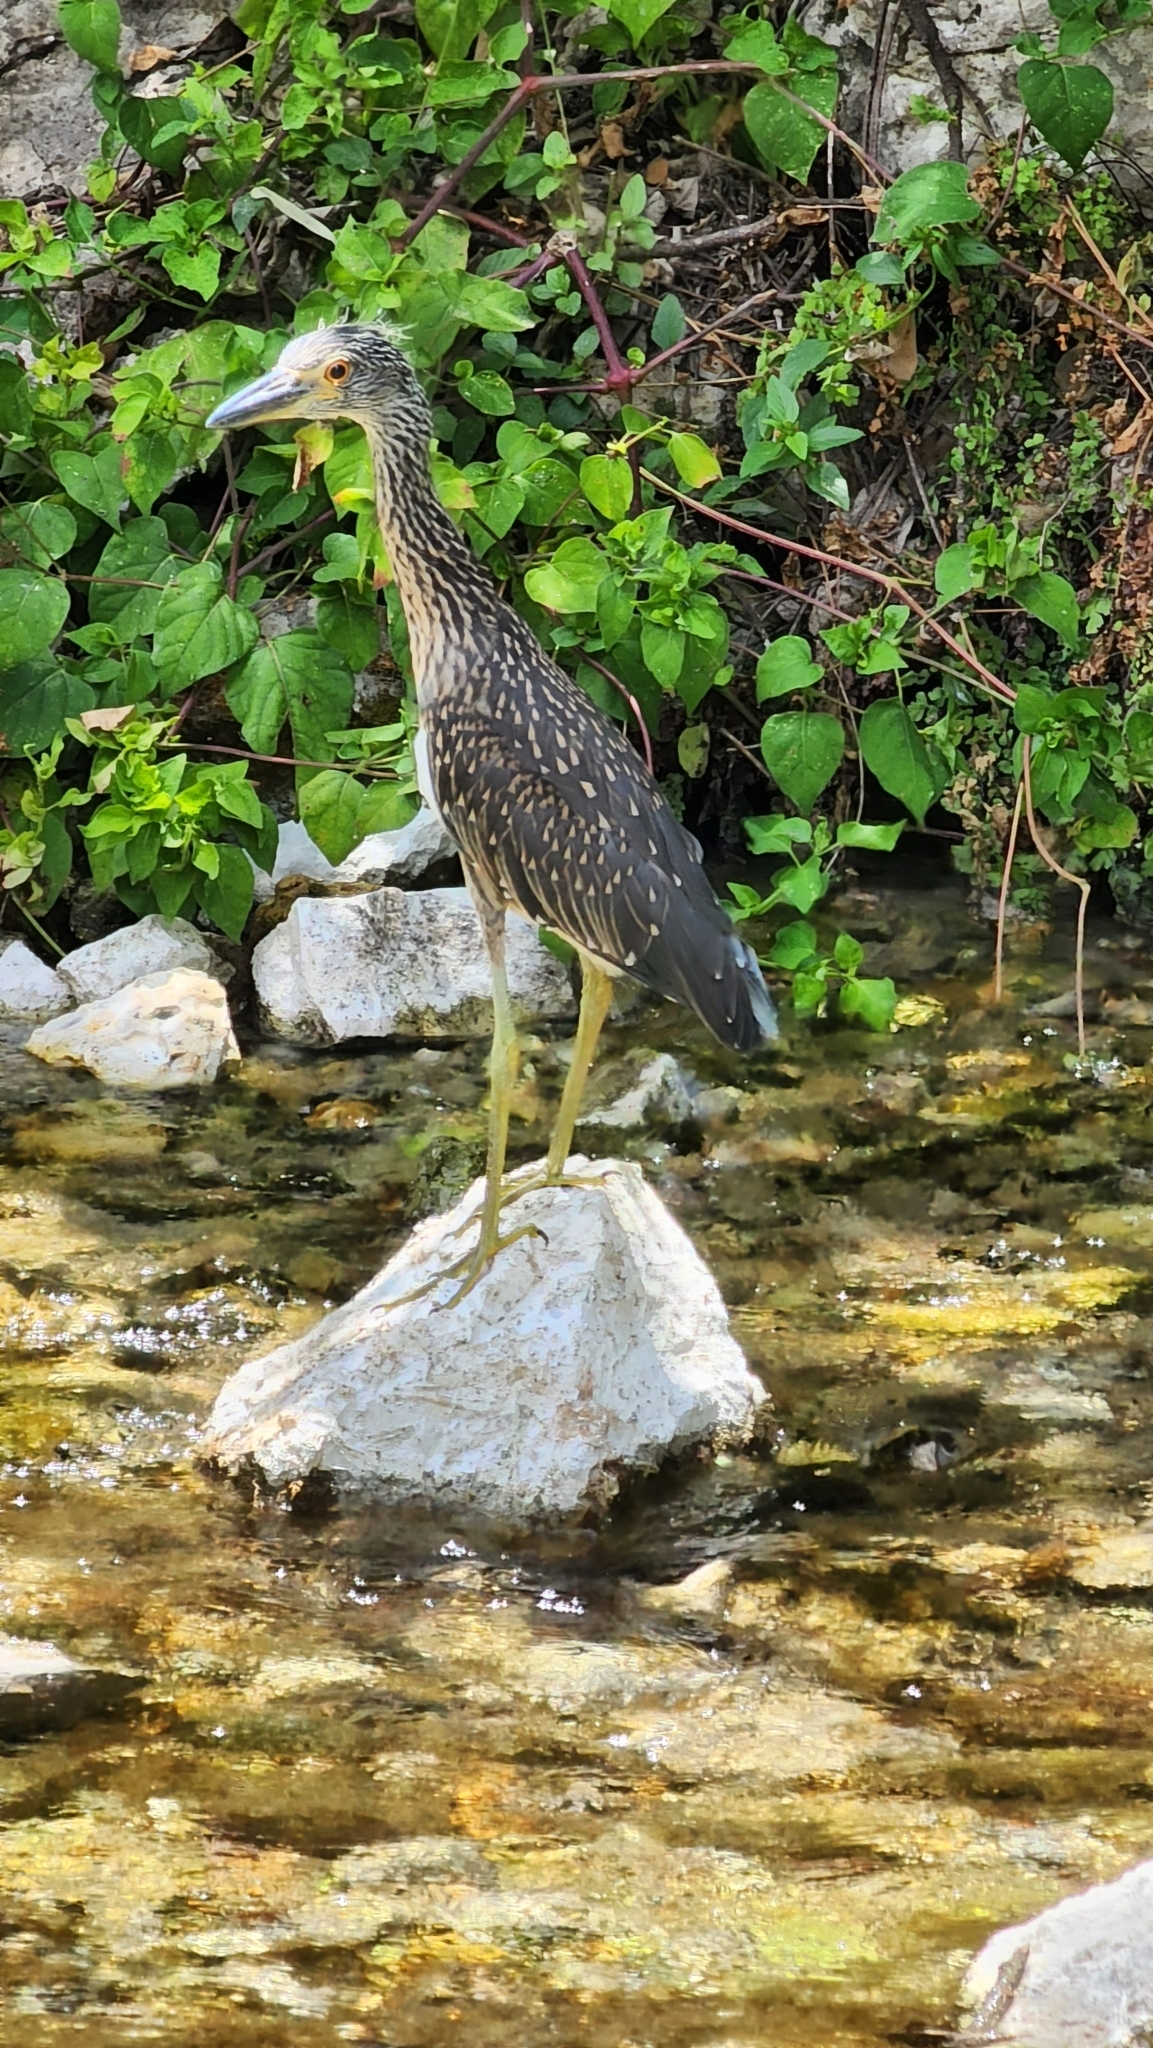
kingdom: Animalia
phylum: Chordata
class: Aves
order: Pelecaniformes
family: Ardeidae
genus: Nyctanassa
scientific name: Nyctanassa violacea
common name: Yellow-crowned night heron
